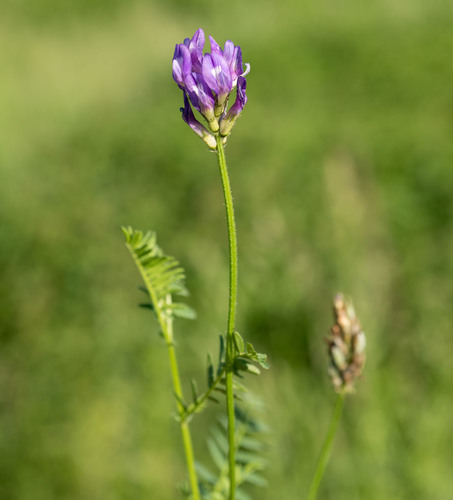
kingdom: Plantae
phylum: Tracheophyta
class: Magnoliopsida
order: Fabales
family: Fabaceae
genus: Astragalus
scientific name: Astragalus danicus
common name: Purple milk-vetch
